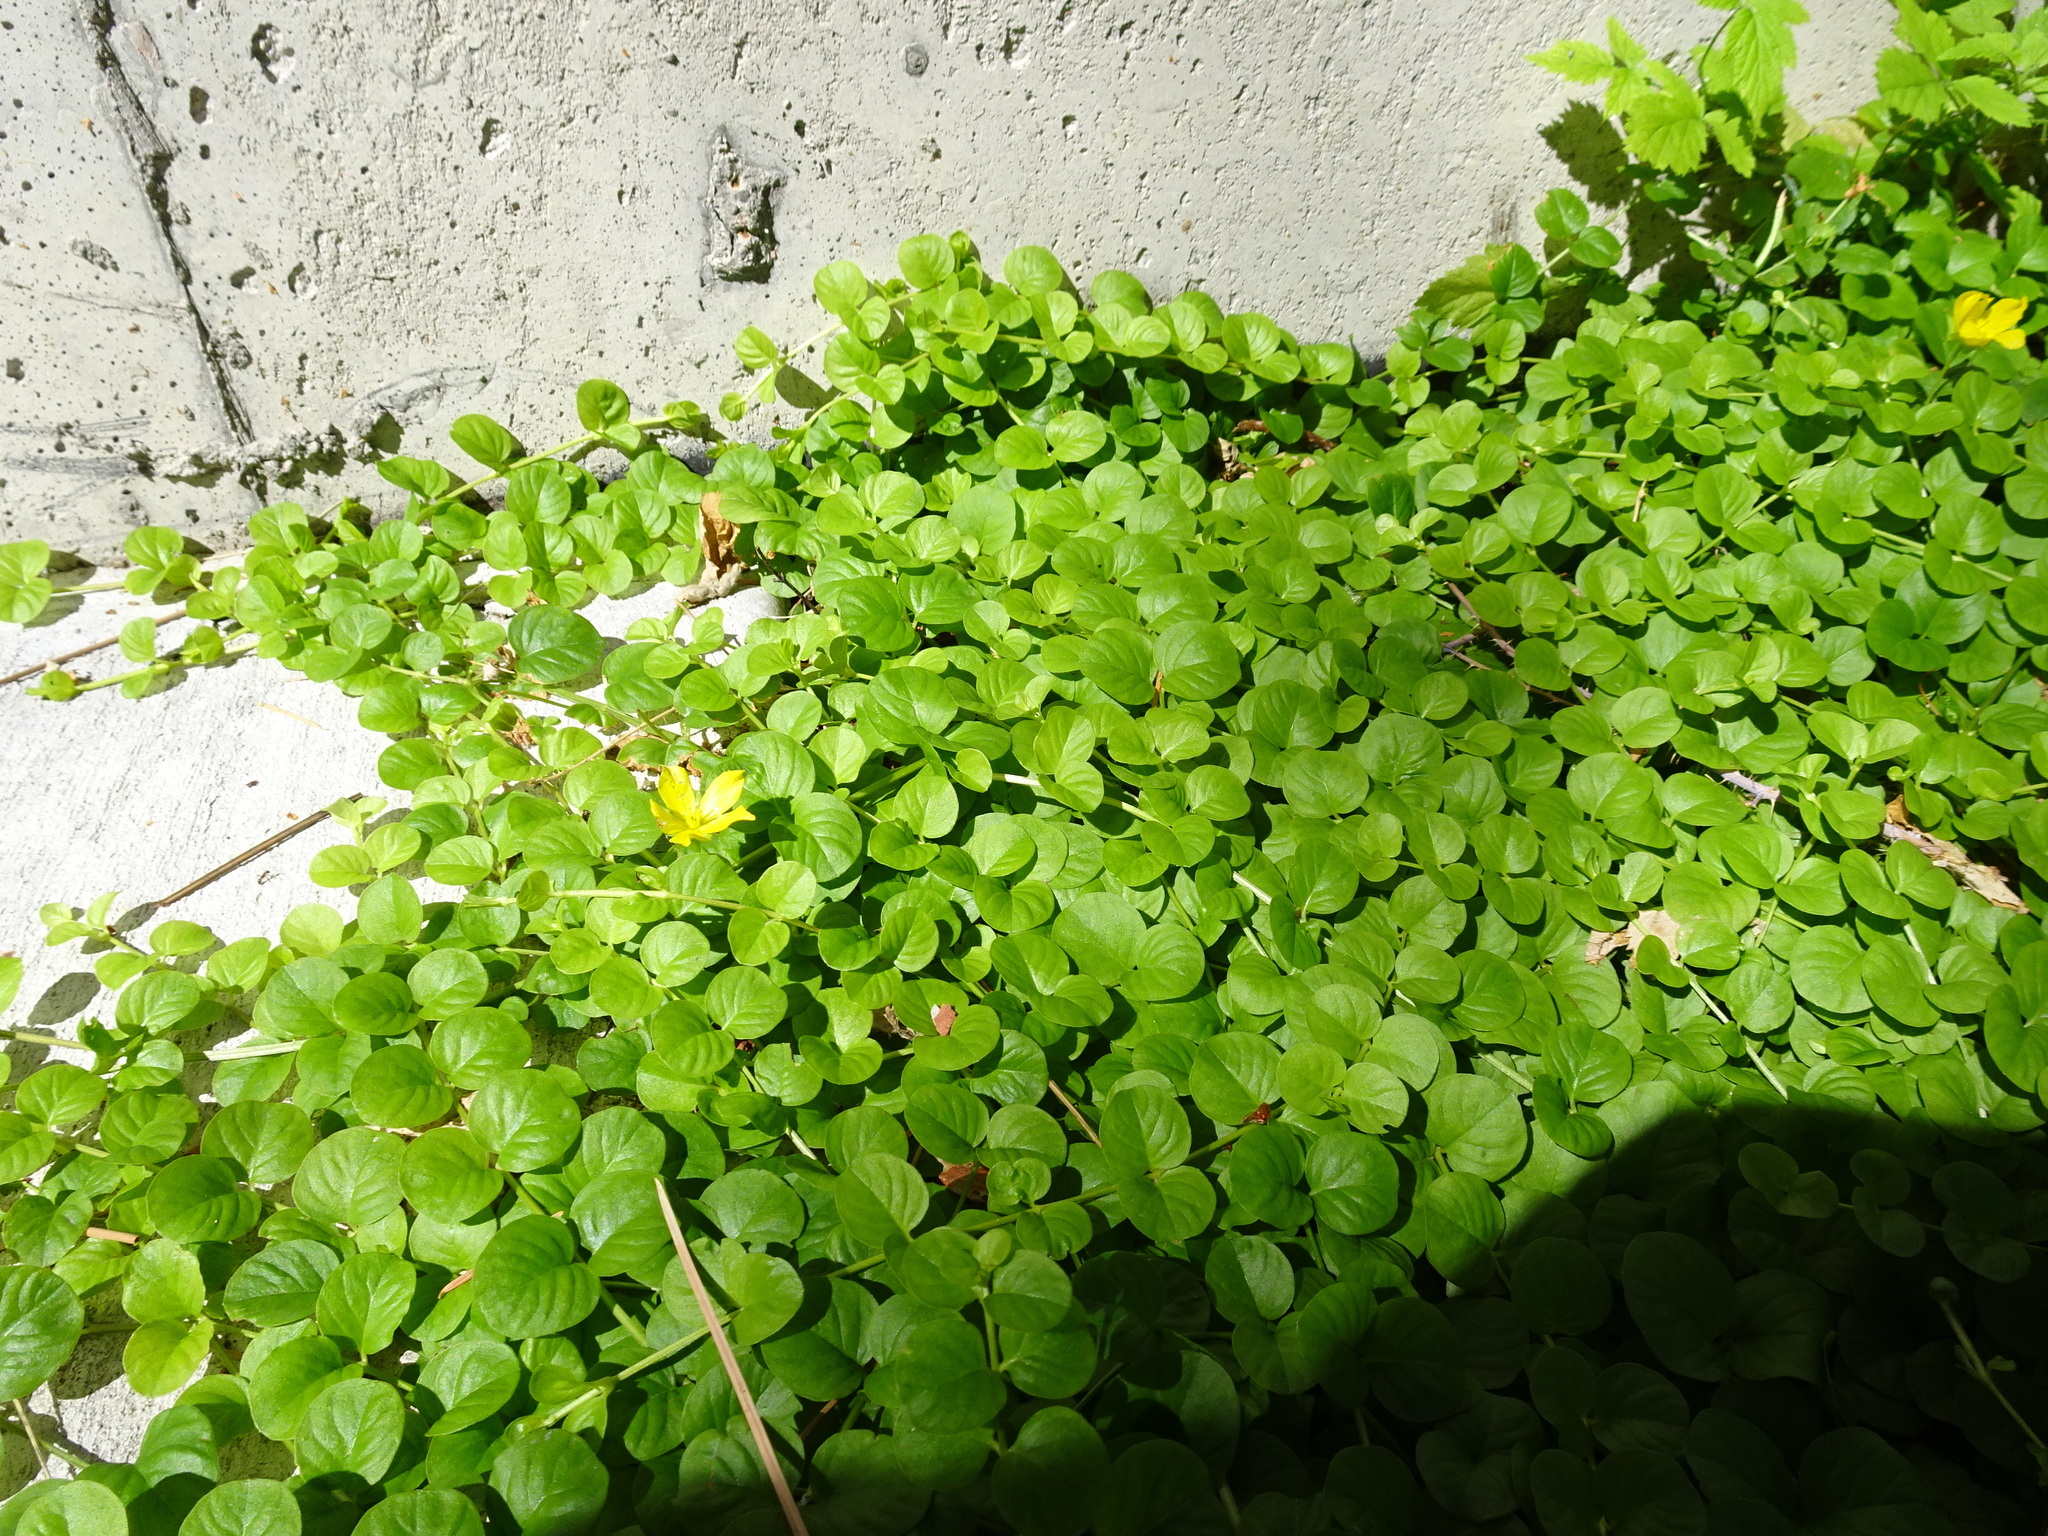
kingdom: Plantae
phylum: Tracheophyta
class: Magnoliopsida
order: Ericales
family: Primulaceae
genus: Lysimachia
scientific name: Lysimachia nummularia
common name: Moneywort
